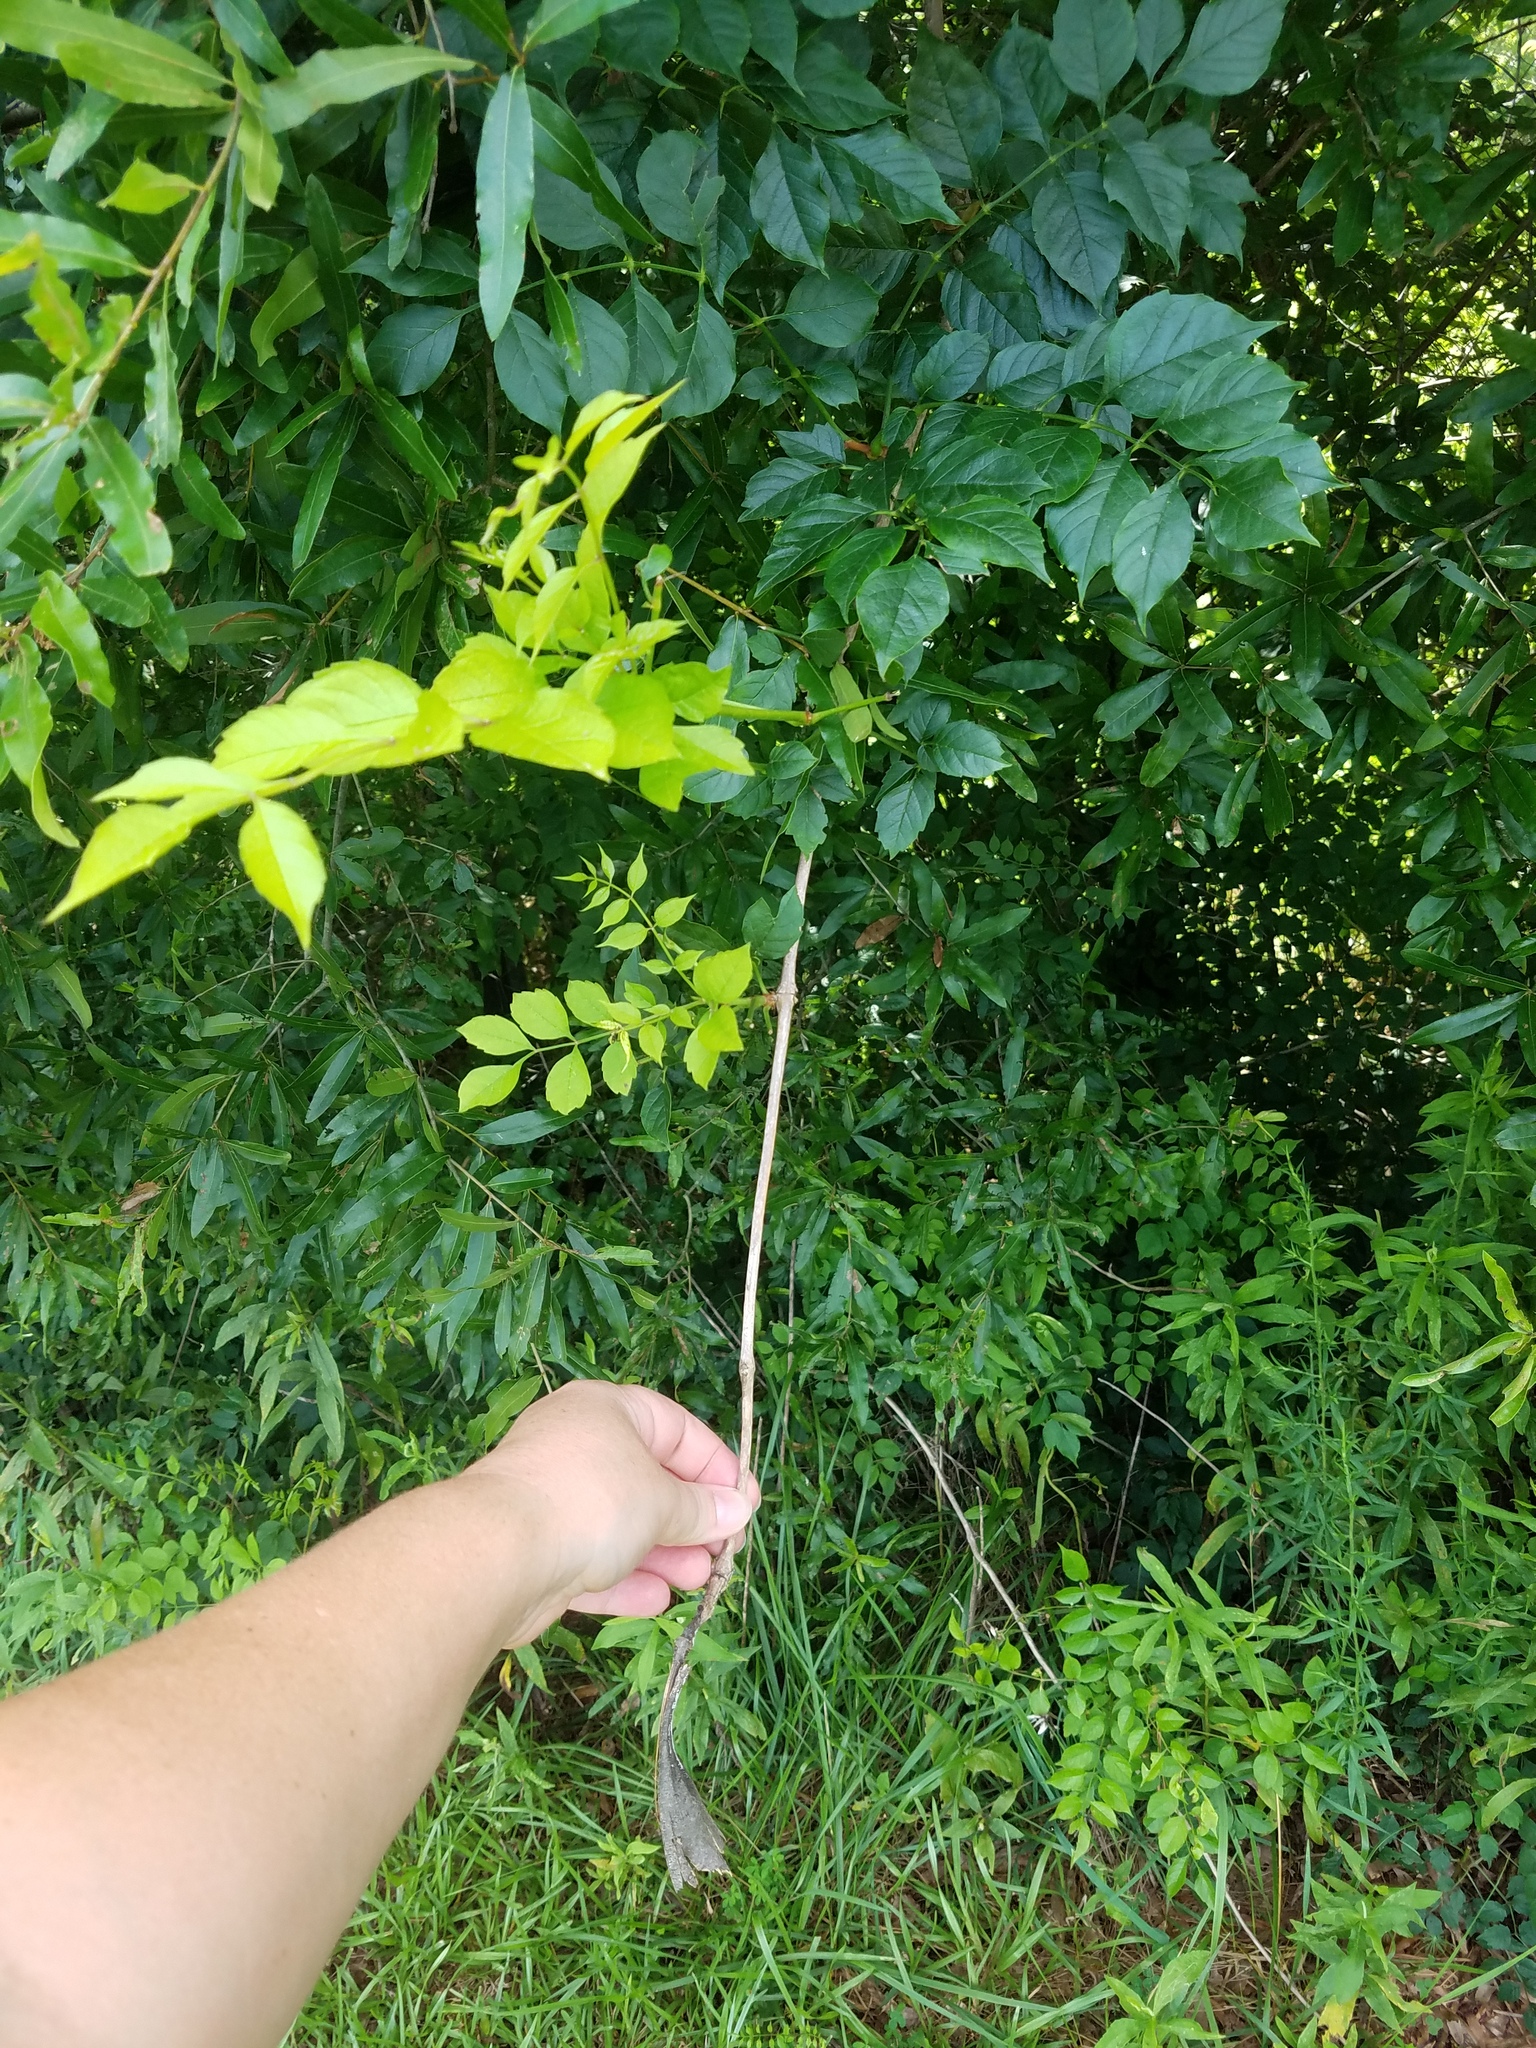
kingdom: Plantae
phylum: Tracheophyta
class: Magnoliopsida
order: Lamiales
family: Bignoniaceae
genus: Campsis
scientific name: Campsis radicans
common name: Trumpet-creeper
